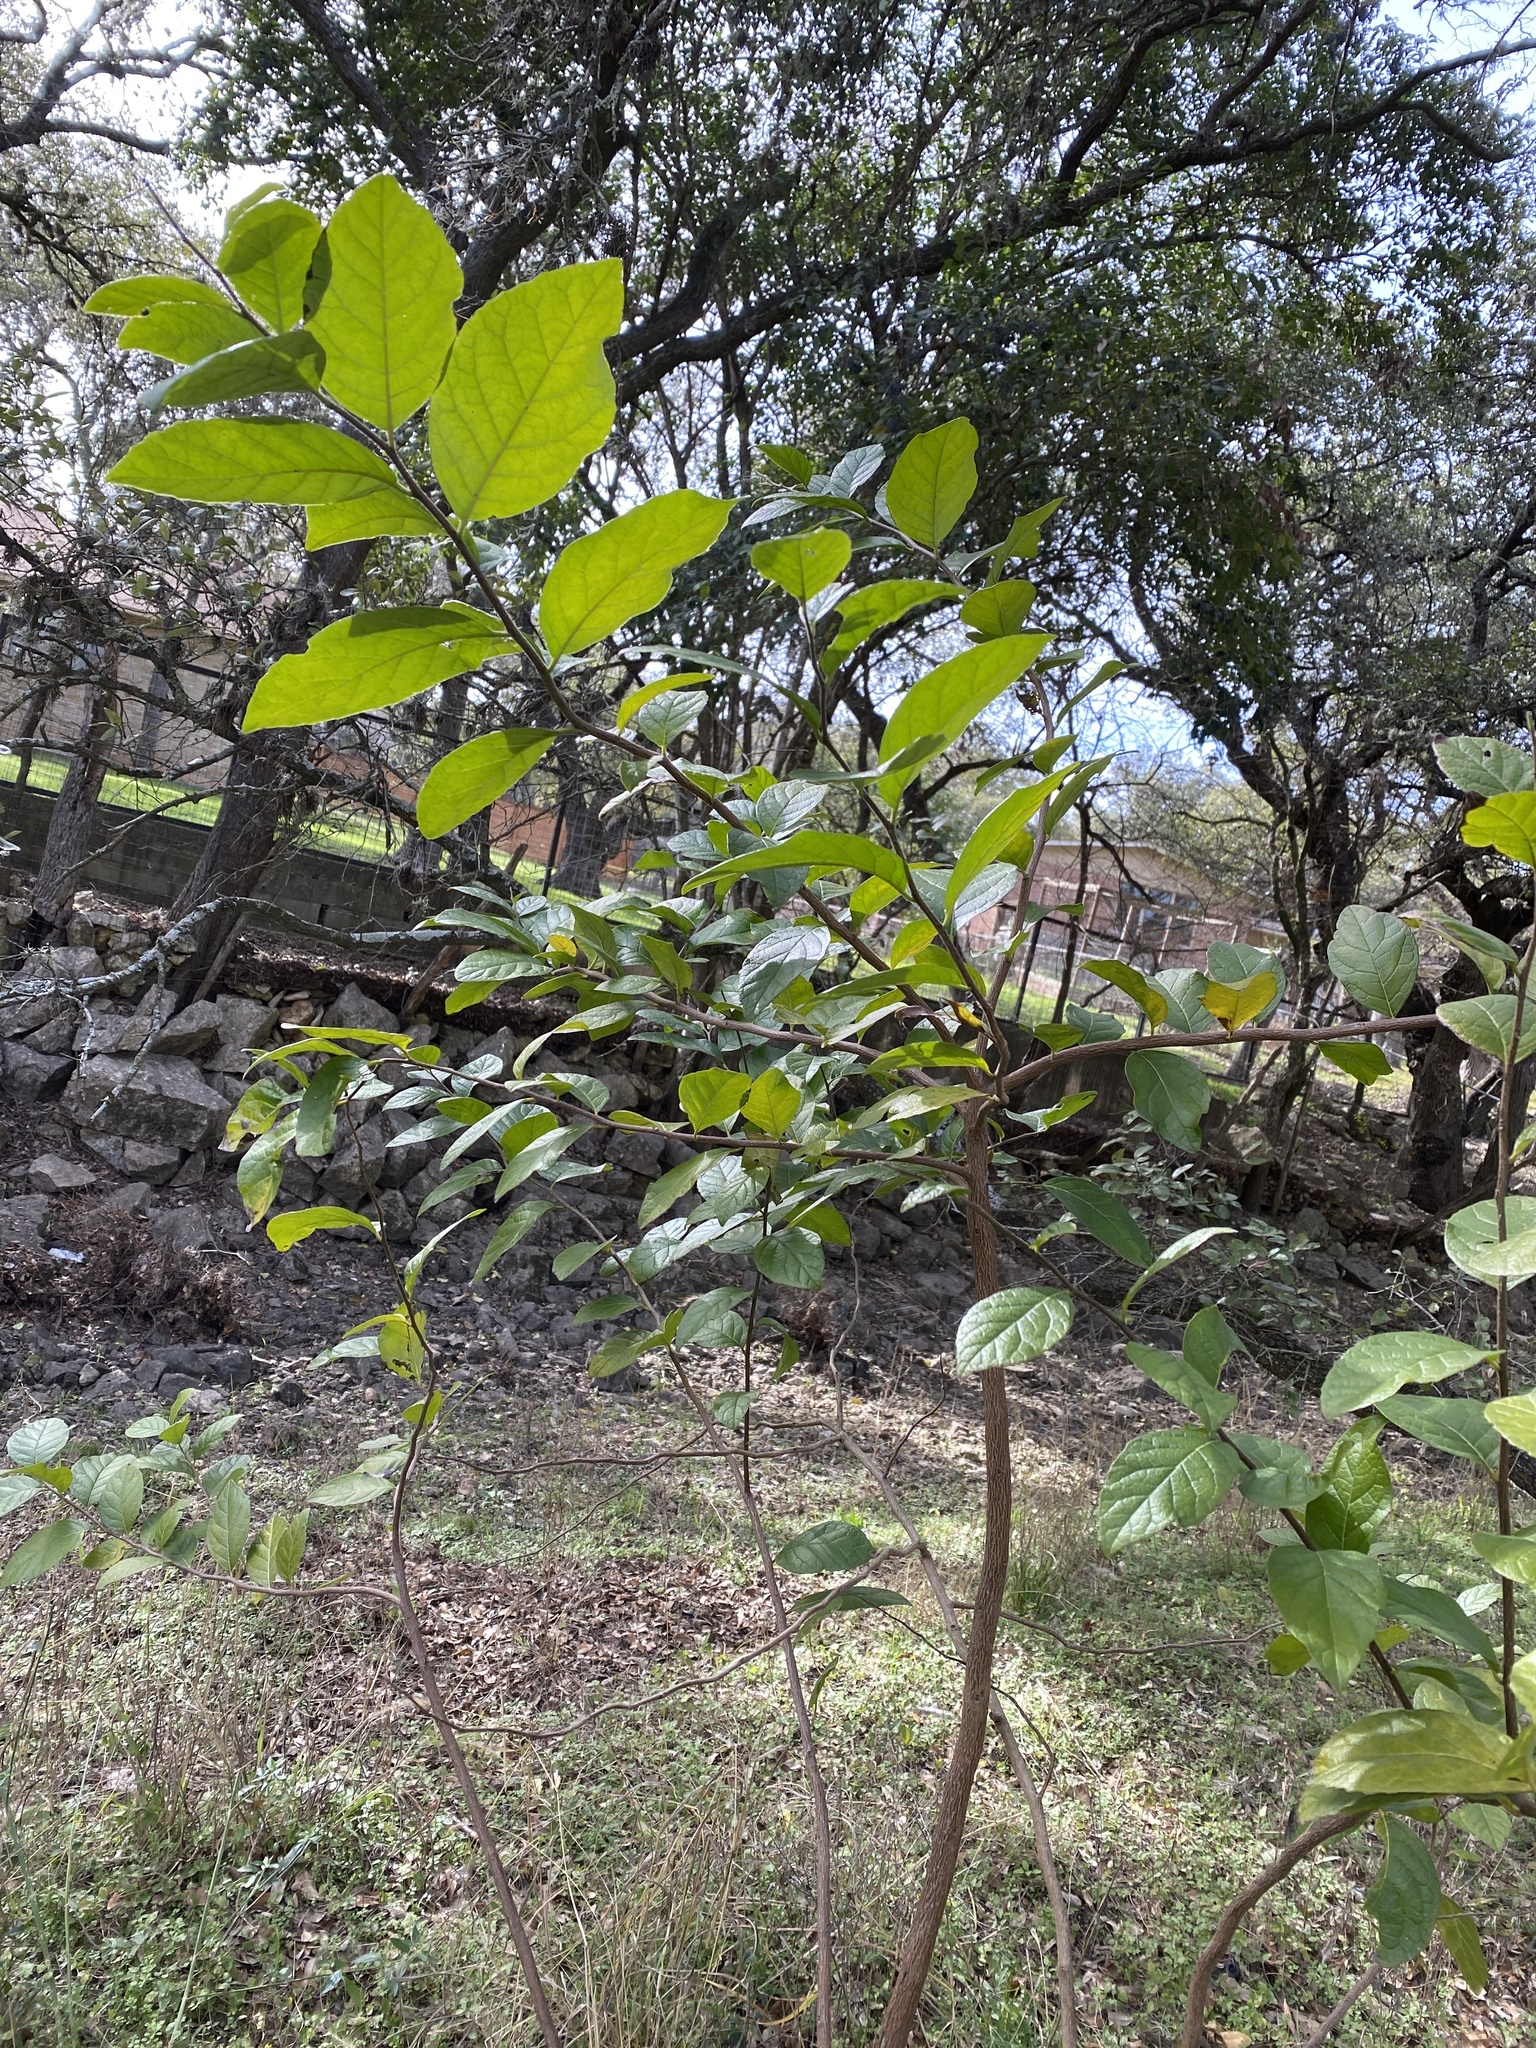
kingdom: Plantae
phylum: Tracheophyta
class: Magnoliopsida
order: Boraginales
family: Ehretiaceae
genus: Ehretia
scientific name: Ehretia anacua
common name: Sugarberry
